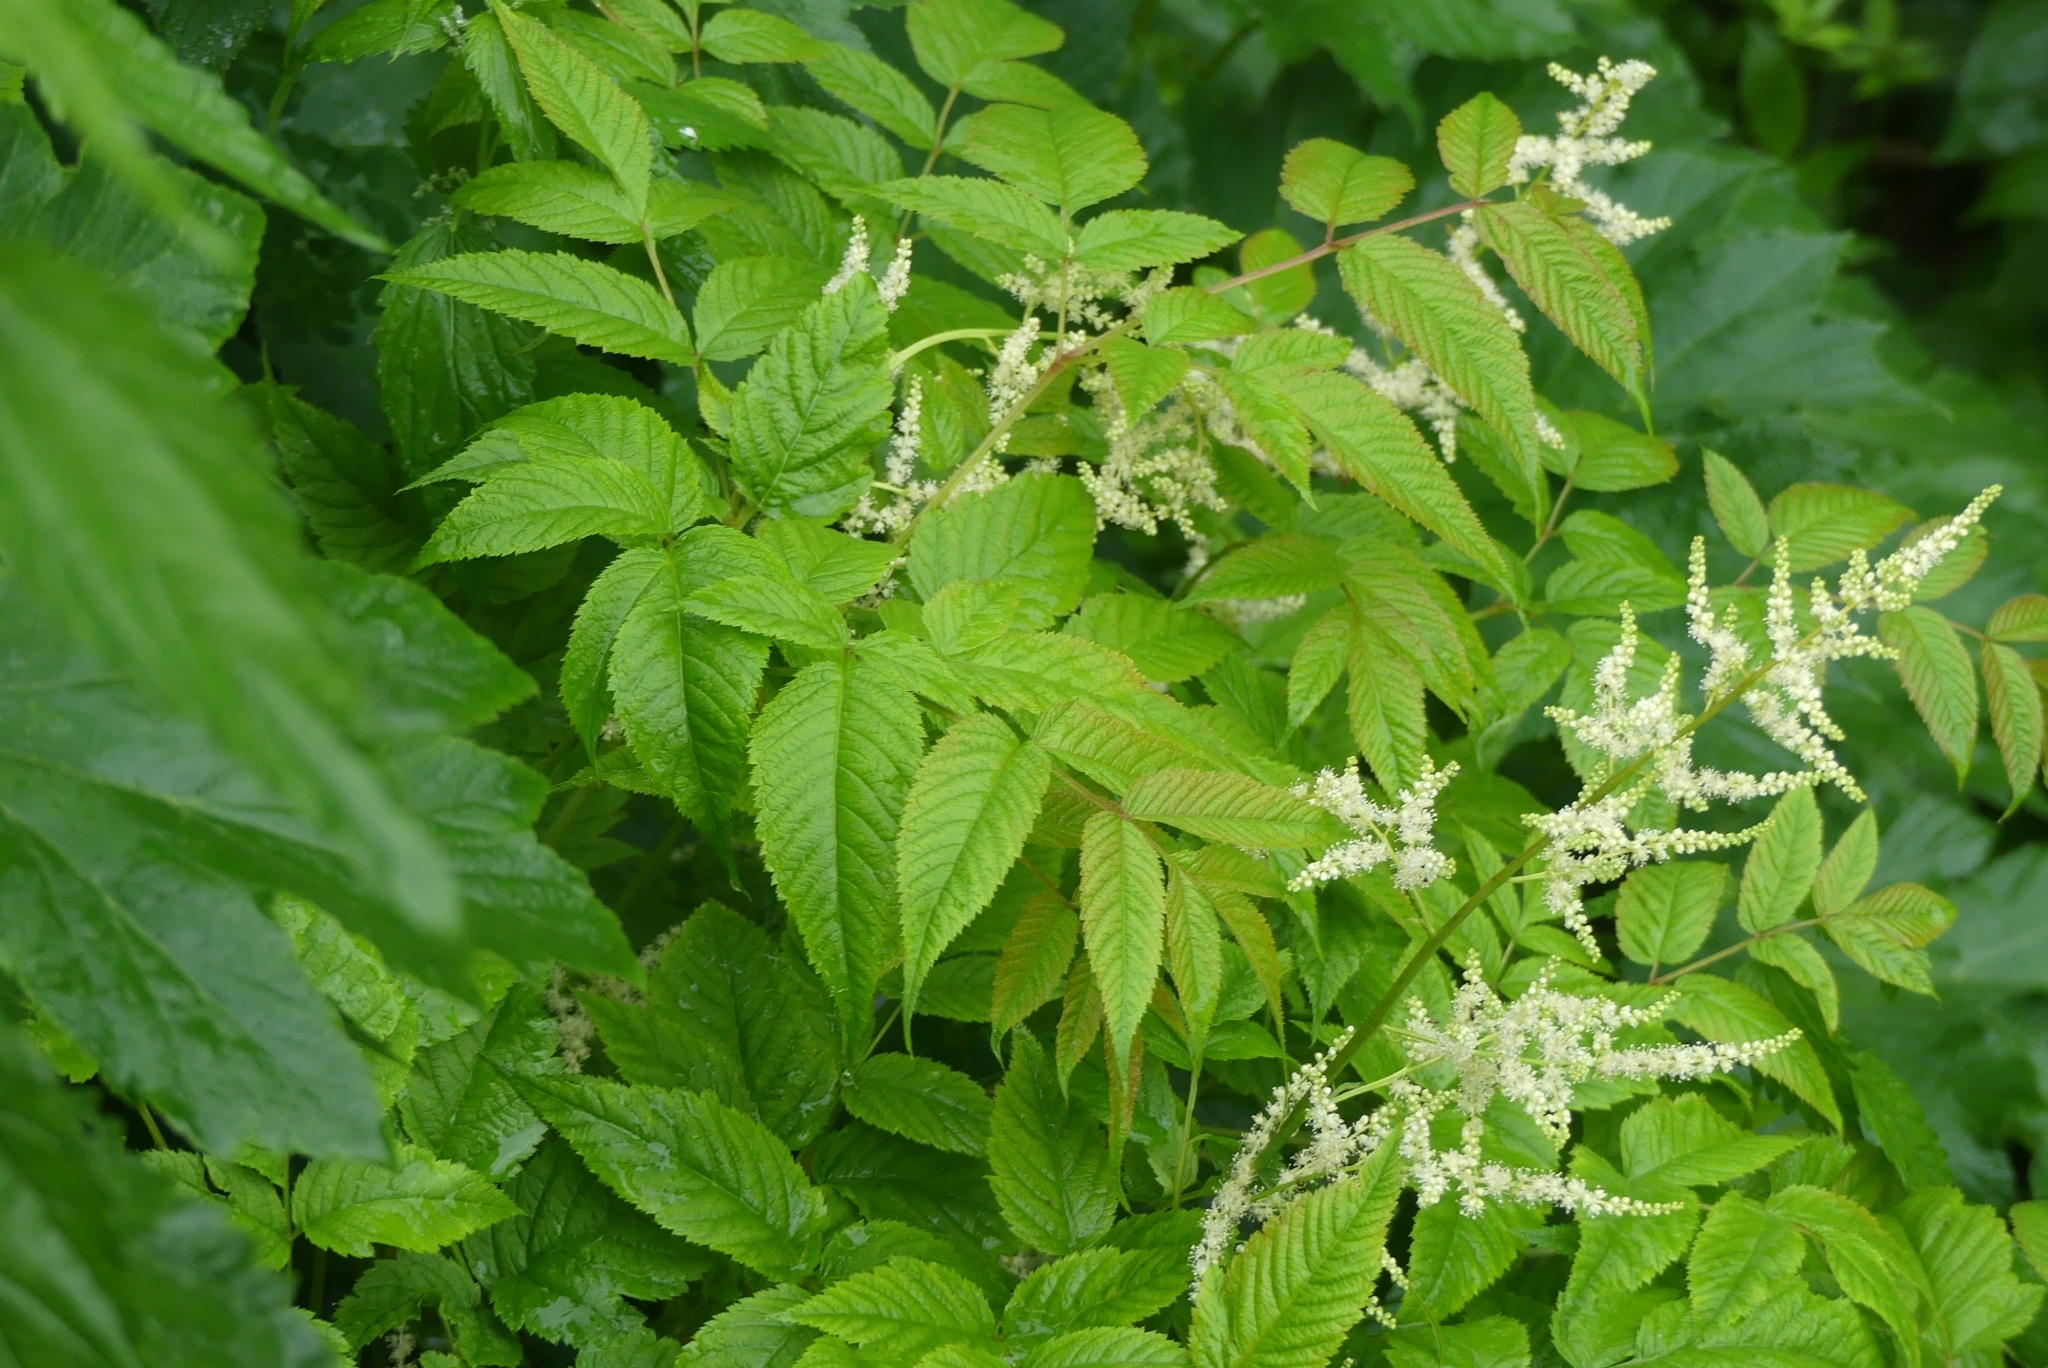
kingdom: Plantae
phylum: Tracheophyta
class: Magnoliopsida
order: Rosales
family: Rosaceae
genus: Aruncus
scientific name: Aruncus dioicus
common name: Buck's-beard
